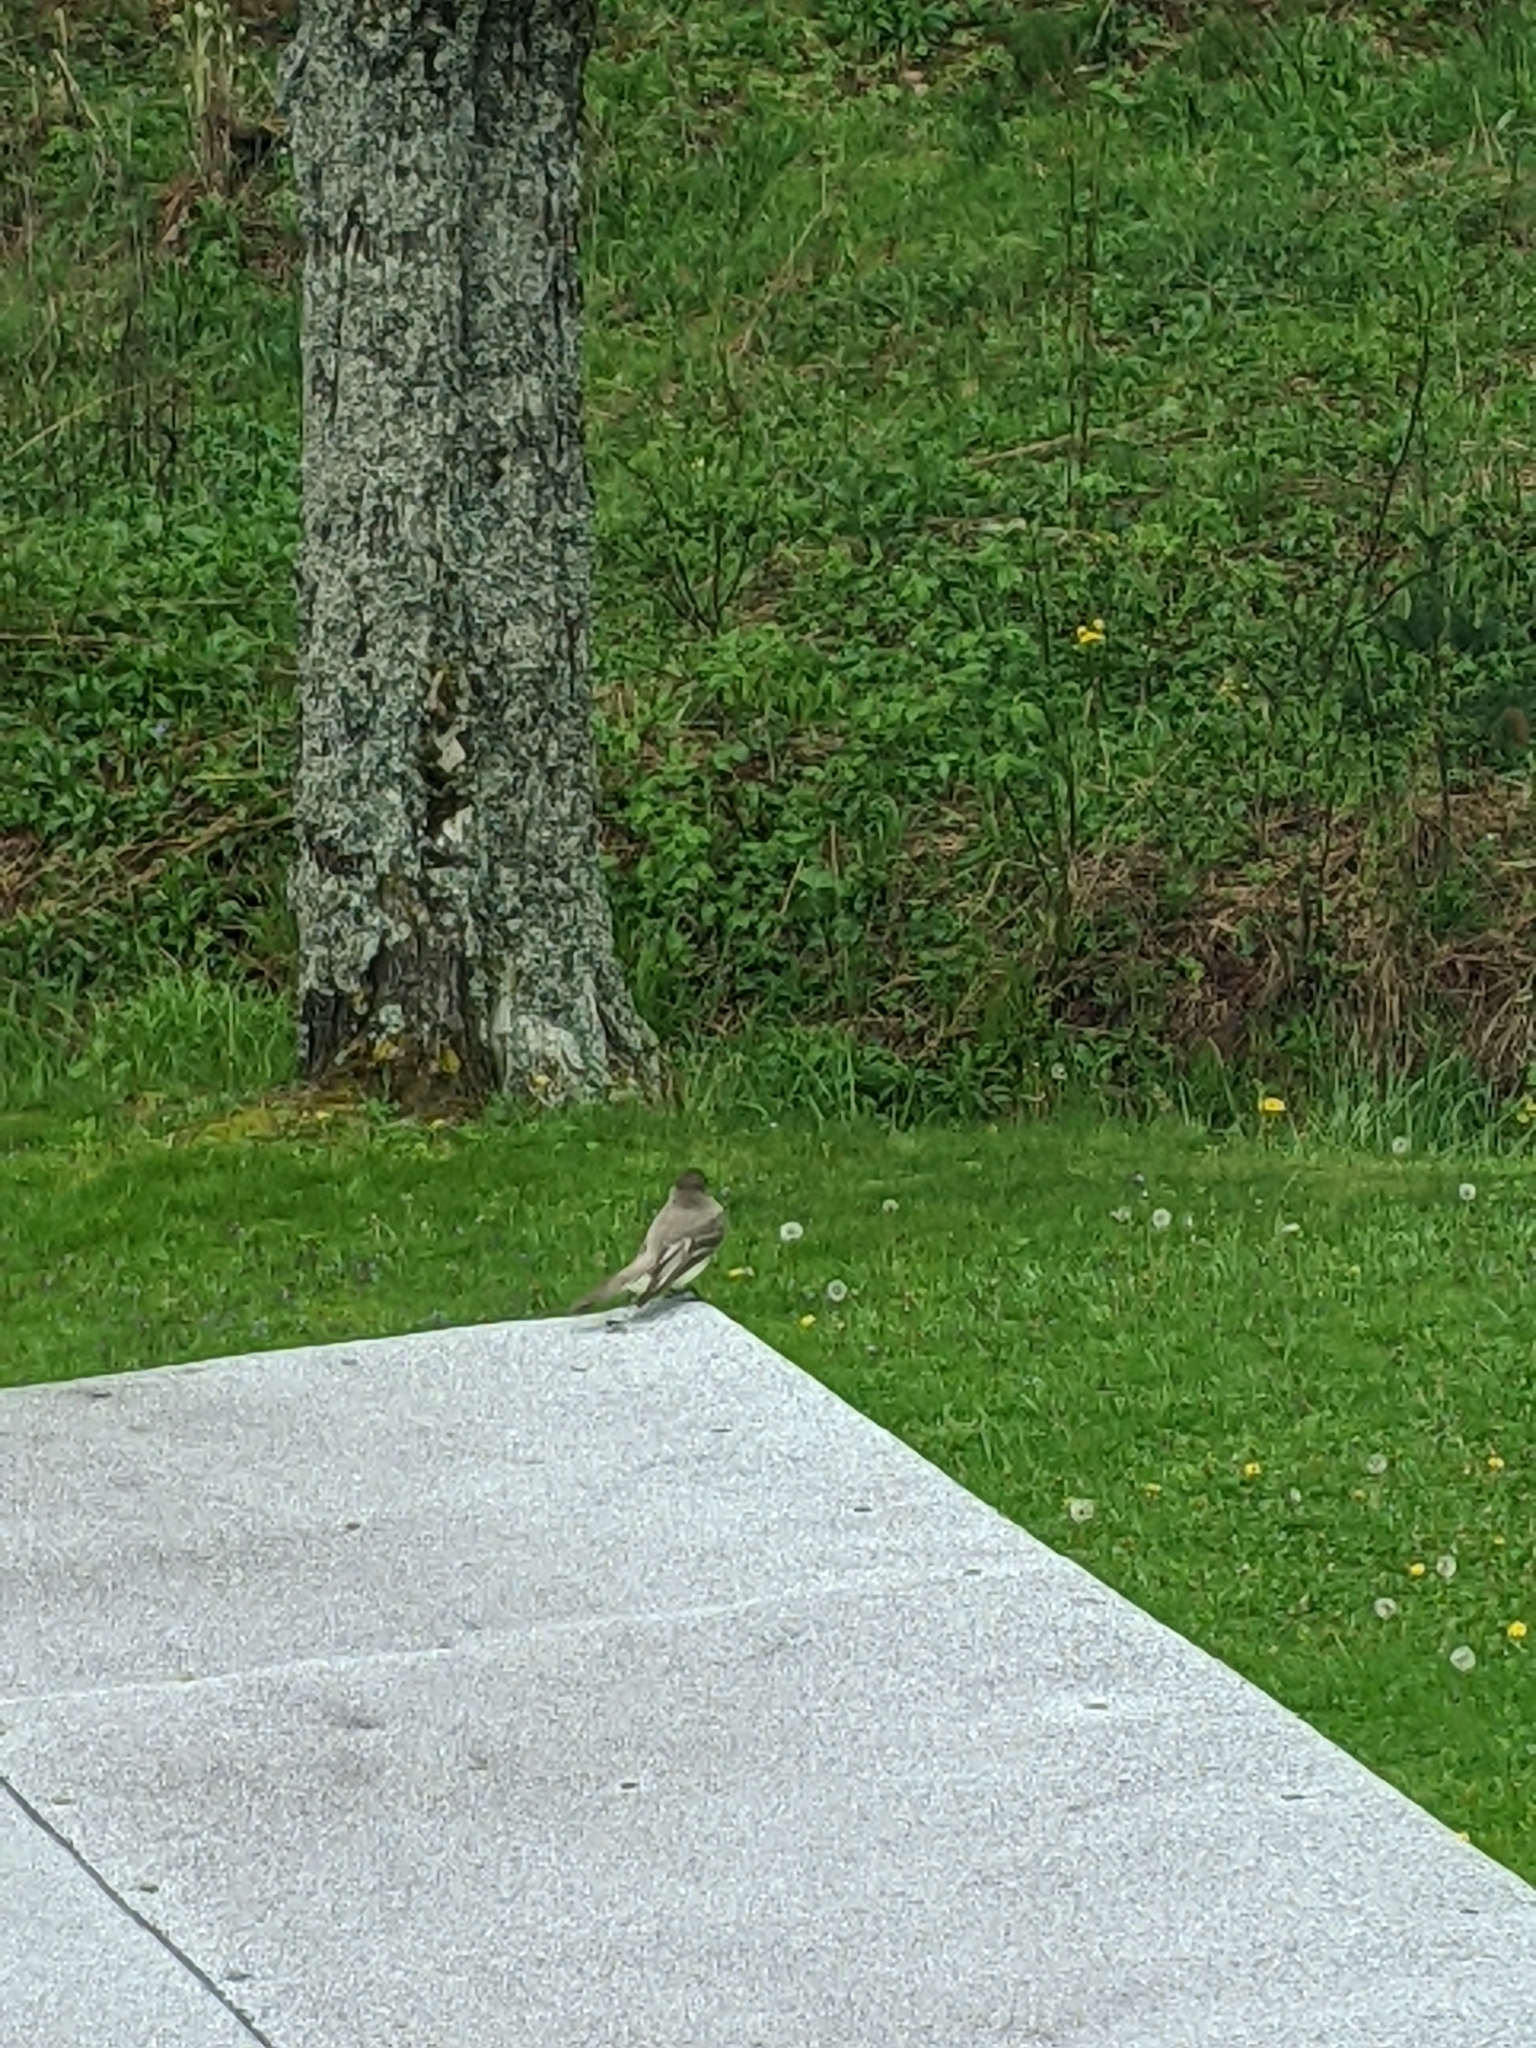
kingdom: Animalia
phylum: Chordata
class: Aves
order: Passeriformes
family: Tyrannidae
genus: Sayornis
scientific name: Sayornis phoebe
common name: Eastern phoebe
